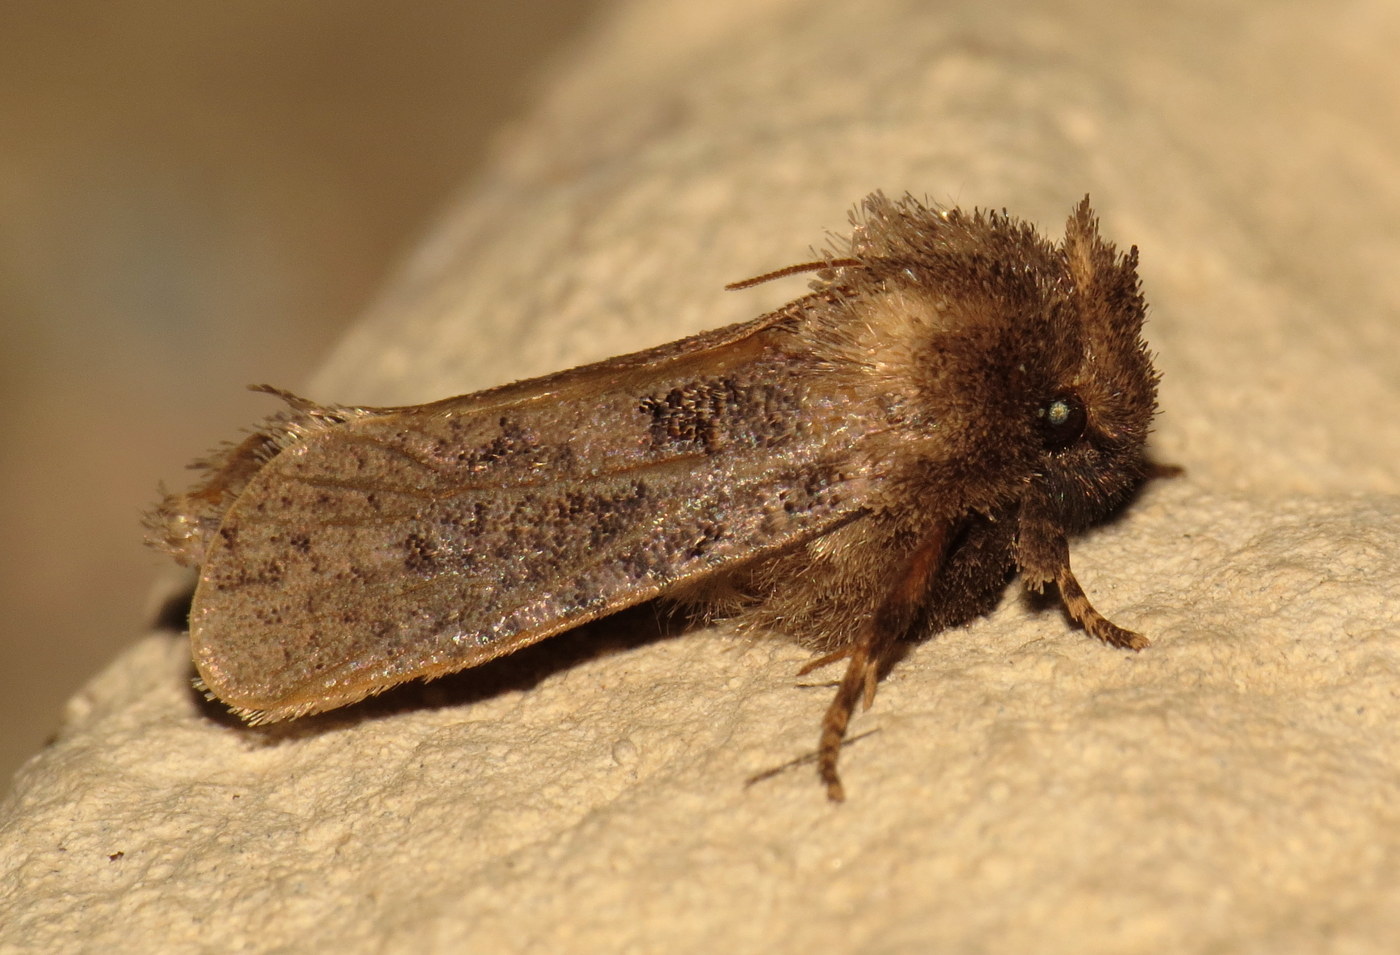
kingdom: Animalia
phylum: Arthropoda
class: Insecta
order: Lepidoptera
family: Tineidae
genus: Acrolophus
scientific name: Acrolophus arcanella
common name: Arcane grass tubeworm moth
